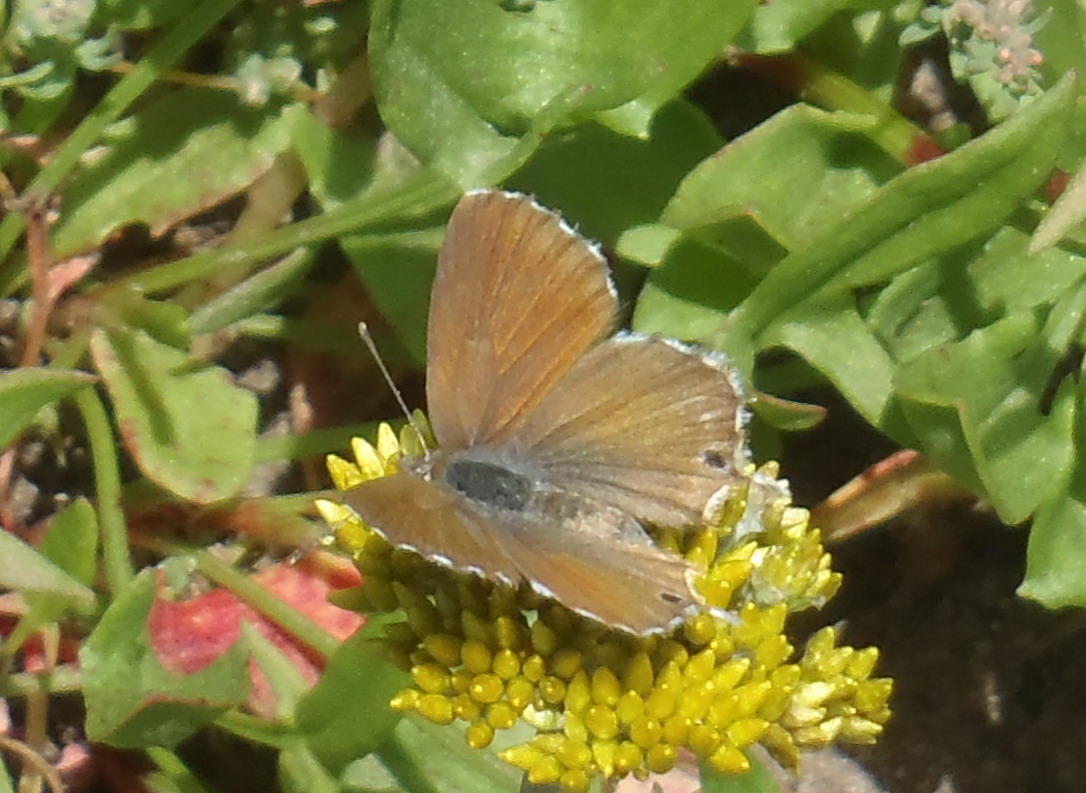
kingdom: Animalia
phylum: Arthropoda
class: Insecta
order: Lepidoptera
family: Lycaenidae
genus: Cacyreus
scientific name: Cacyreus marshalli
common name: Geranium bronze
